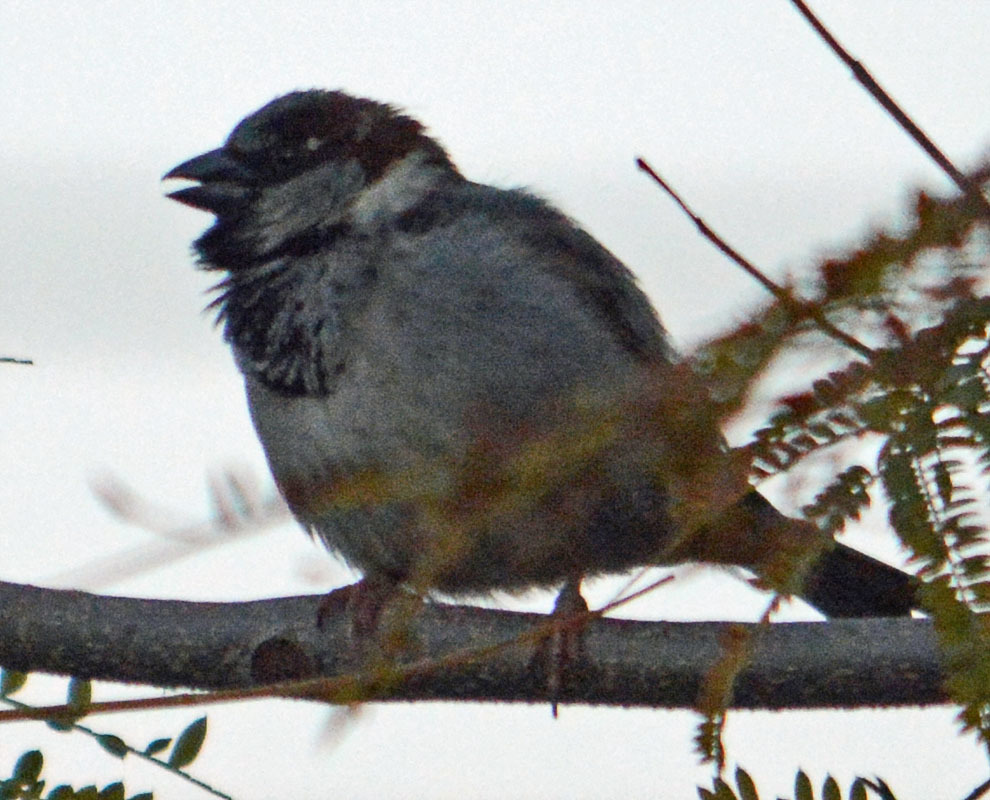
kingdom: Animalia
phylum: Chordata
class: Aves
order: Passeriformes
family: Passeridae
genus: Passer
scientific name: Passer domesticus
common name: House sparrow
